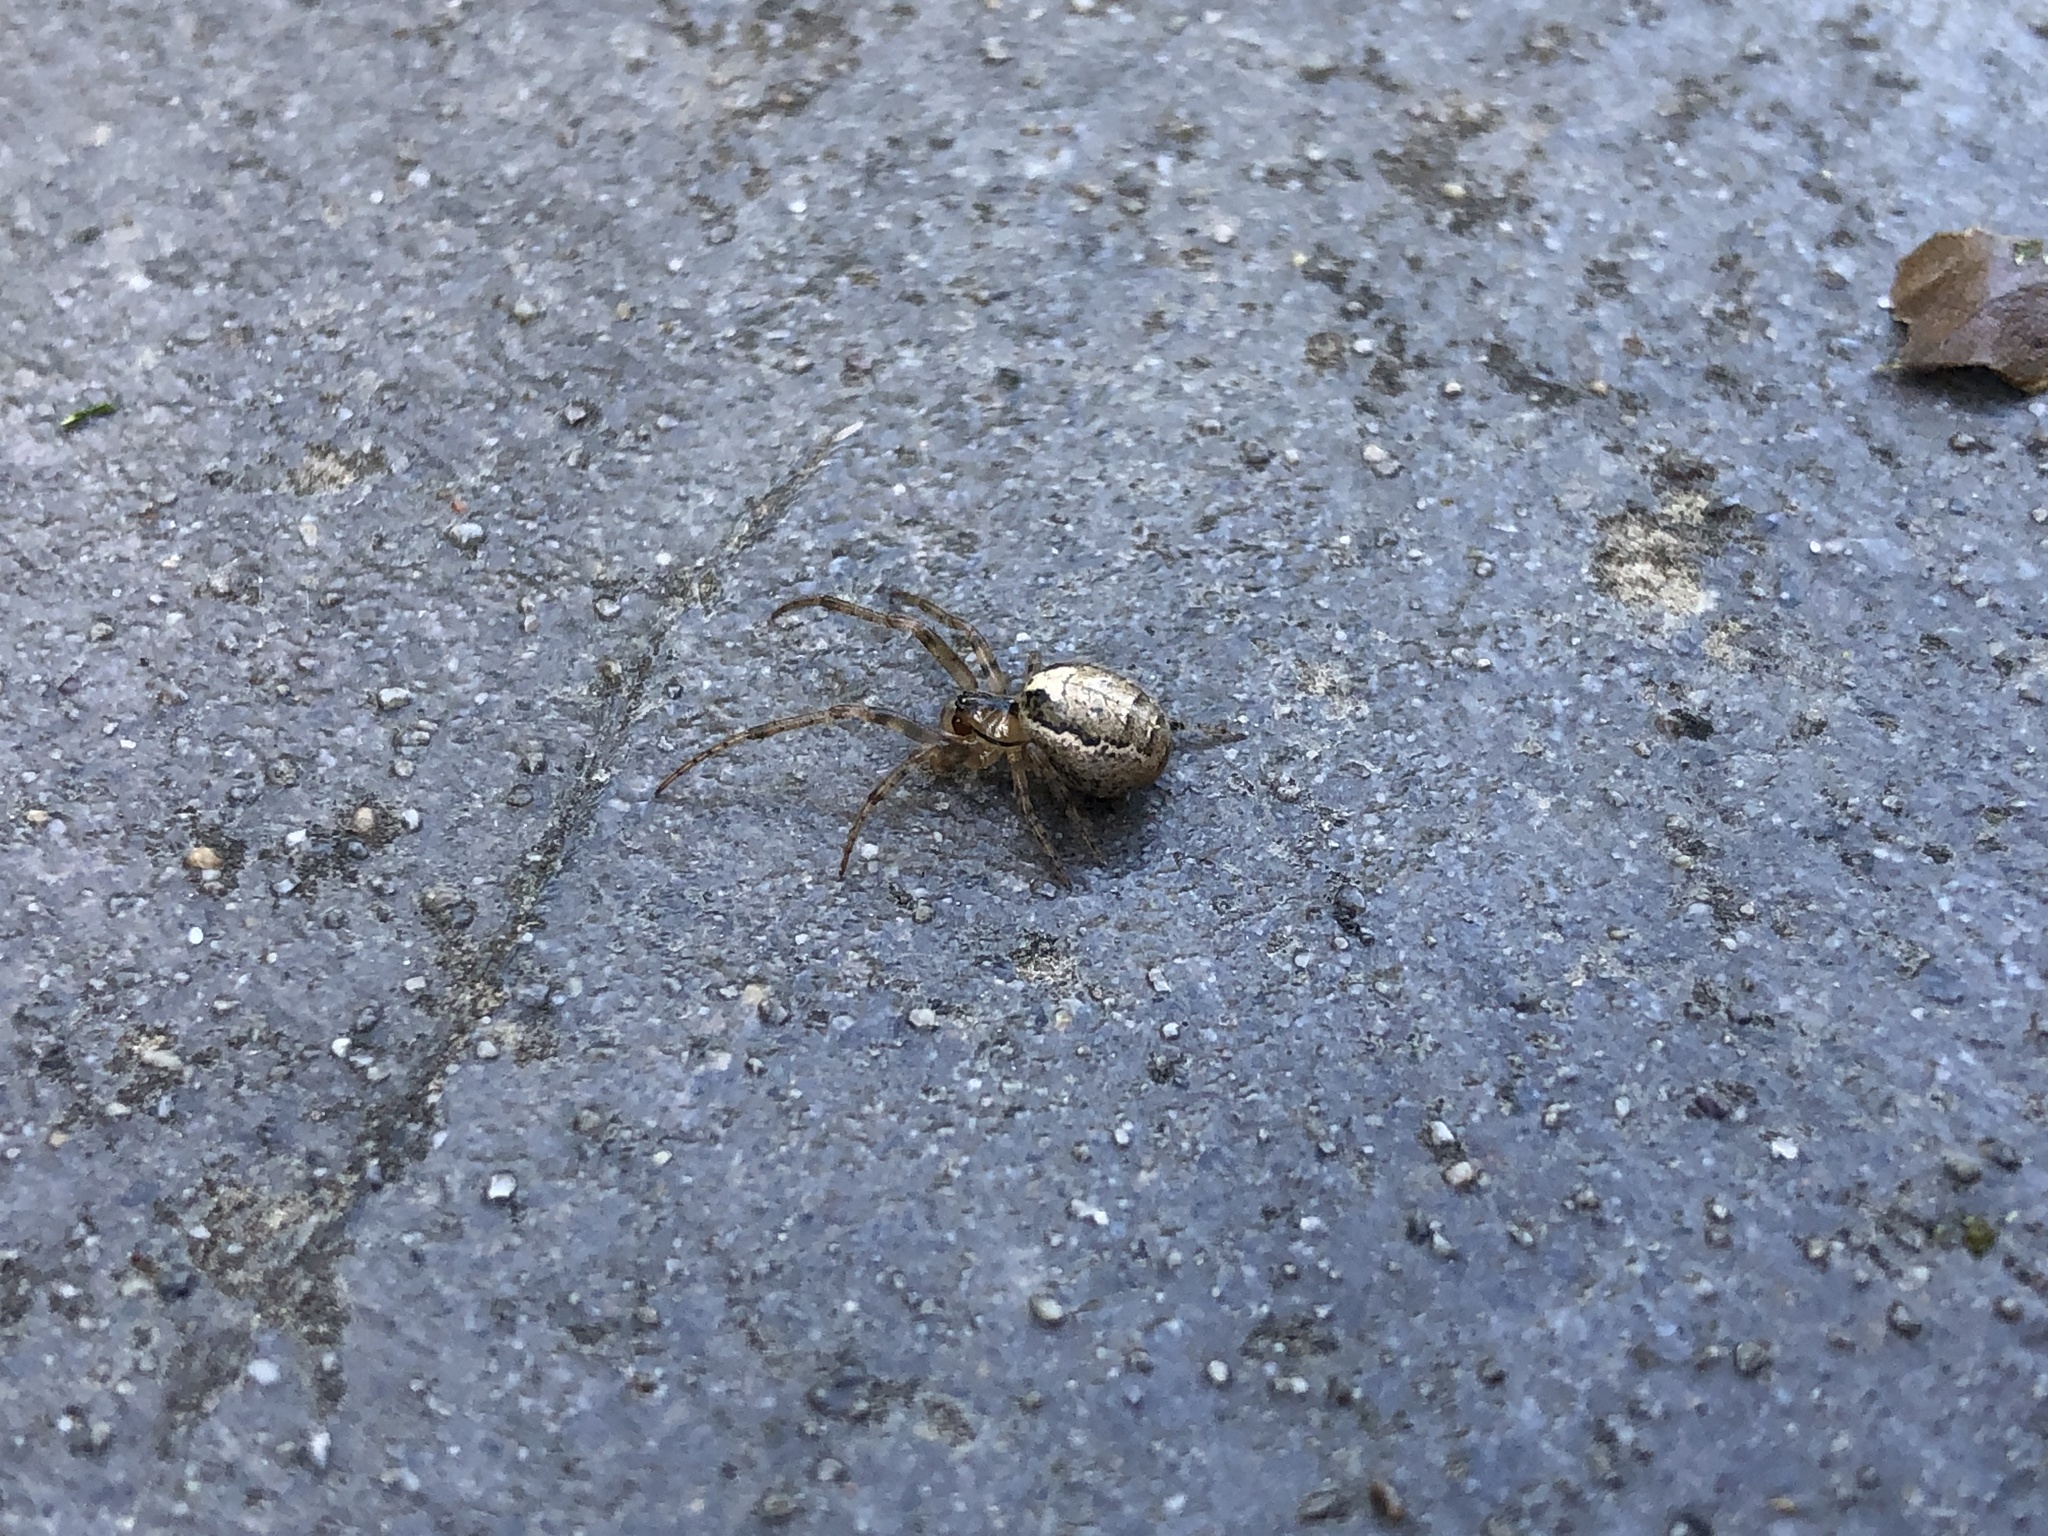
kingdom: Animalia
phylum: Arthropoda
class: Arachnida
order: Araneae
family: Araneidae
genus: Zygiella
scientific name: Zygiella x-notata
